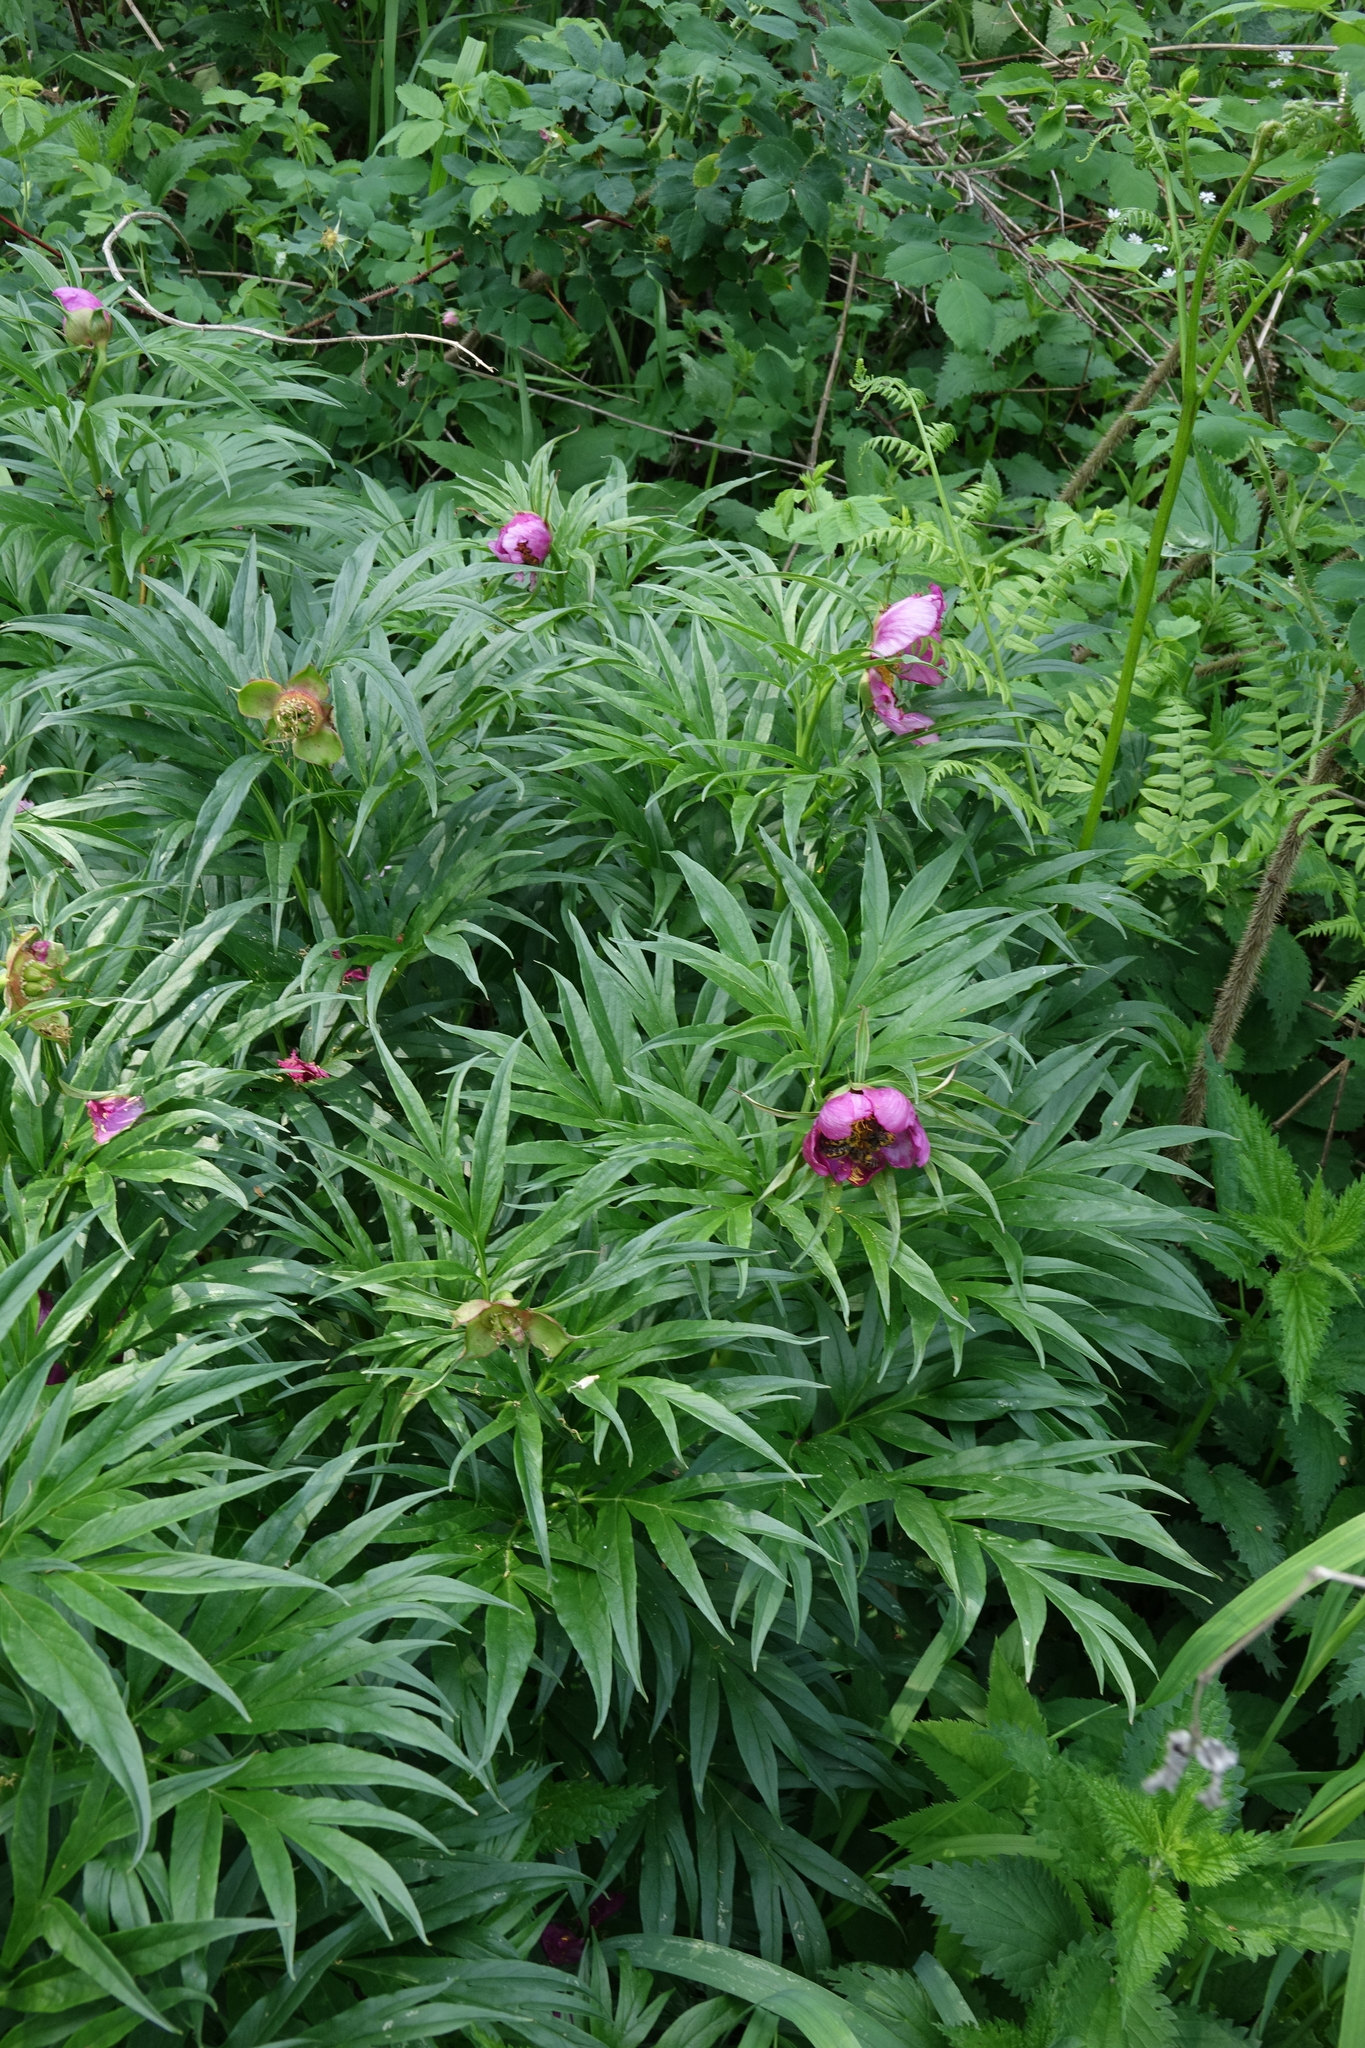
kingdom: Plantae
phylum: Tracheophyta
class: Magnoliopsida
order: Saxifragales
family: Paeoniaceae
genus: Paeonia
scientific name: Paeonia anomala
